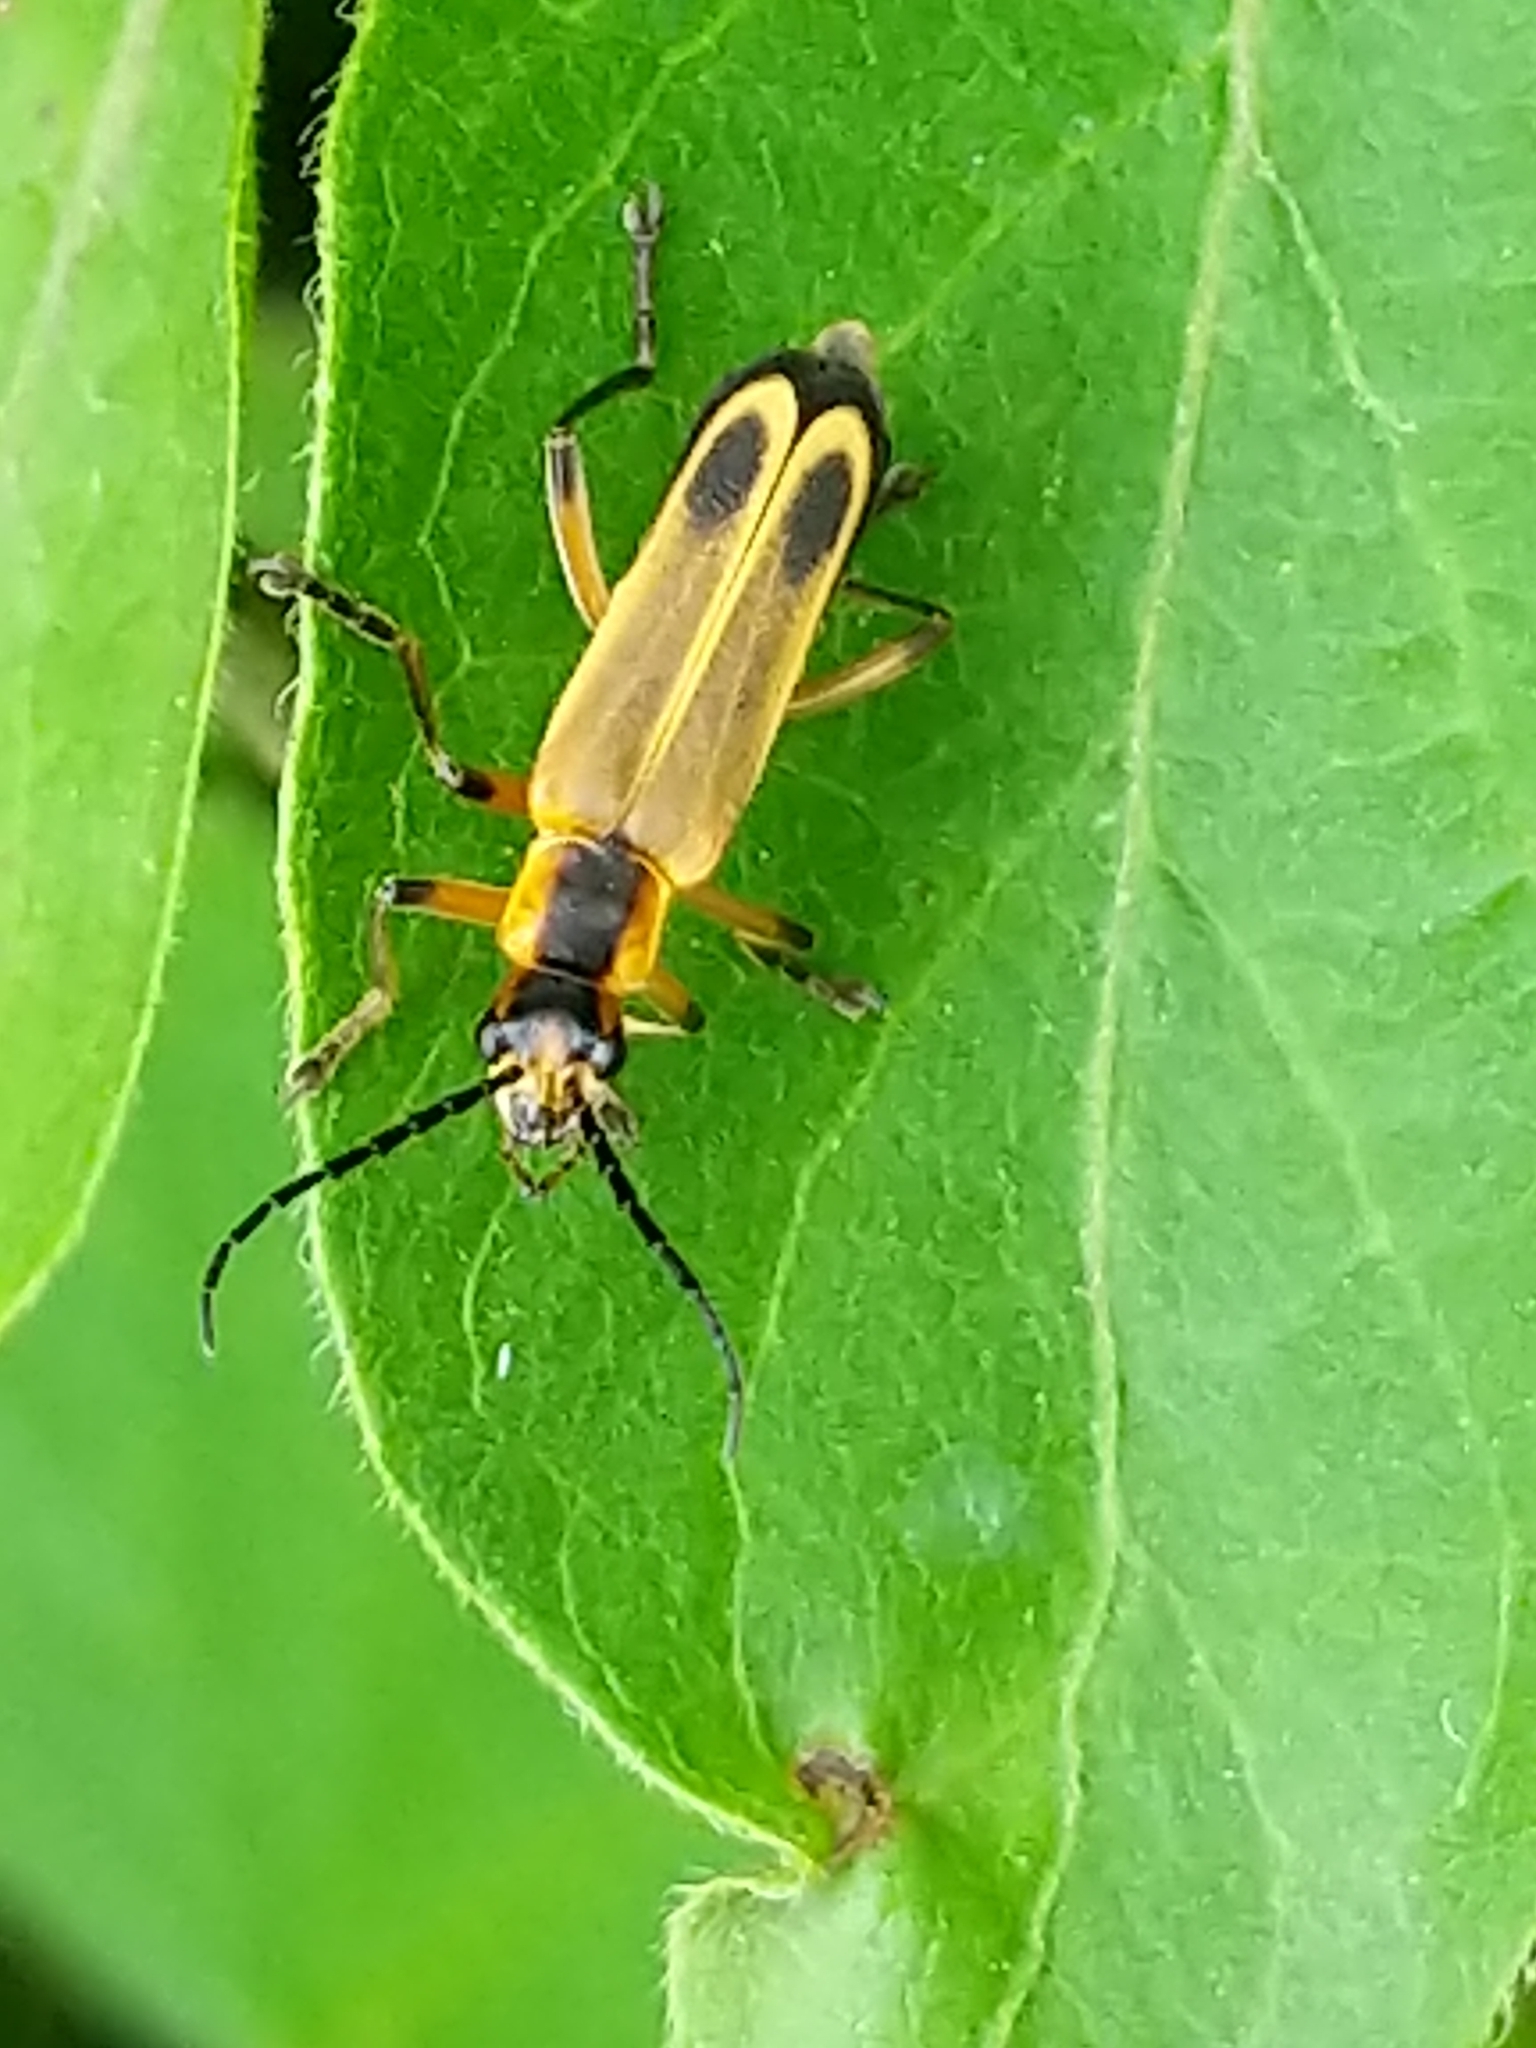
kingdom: Animalia
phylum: Arthropoda
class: Insecta
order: Coleoptera
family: Cantharidae
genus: Chauliognathus
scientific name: Chauliognathus marginatus
